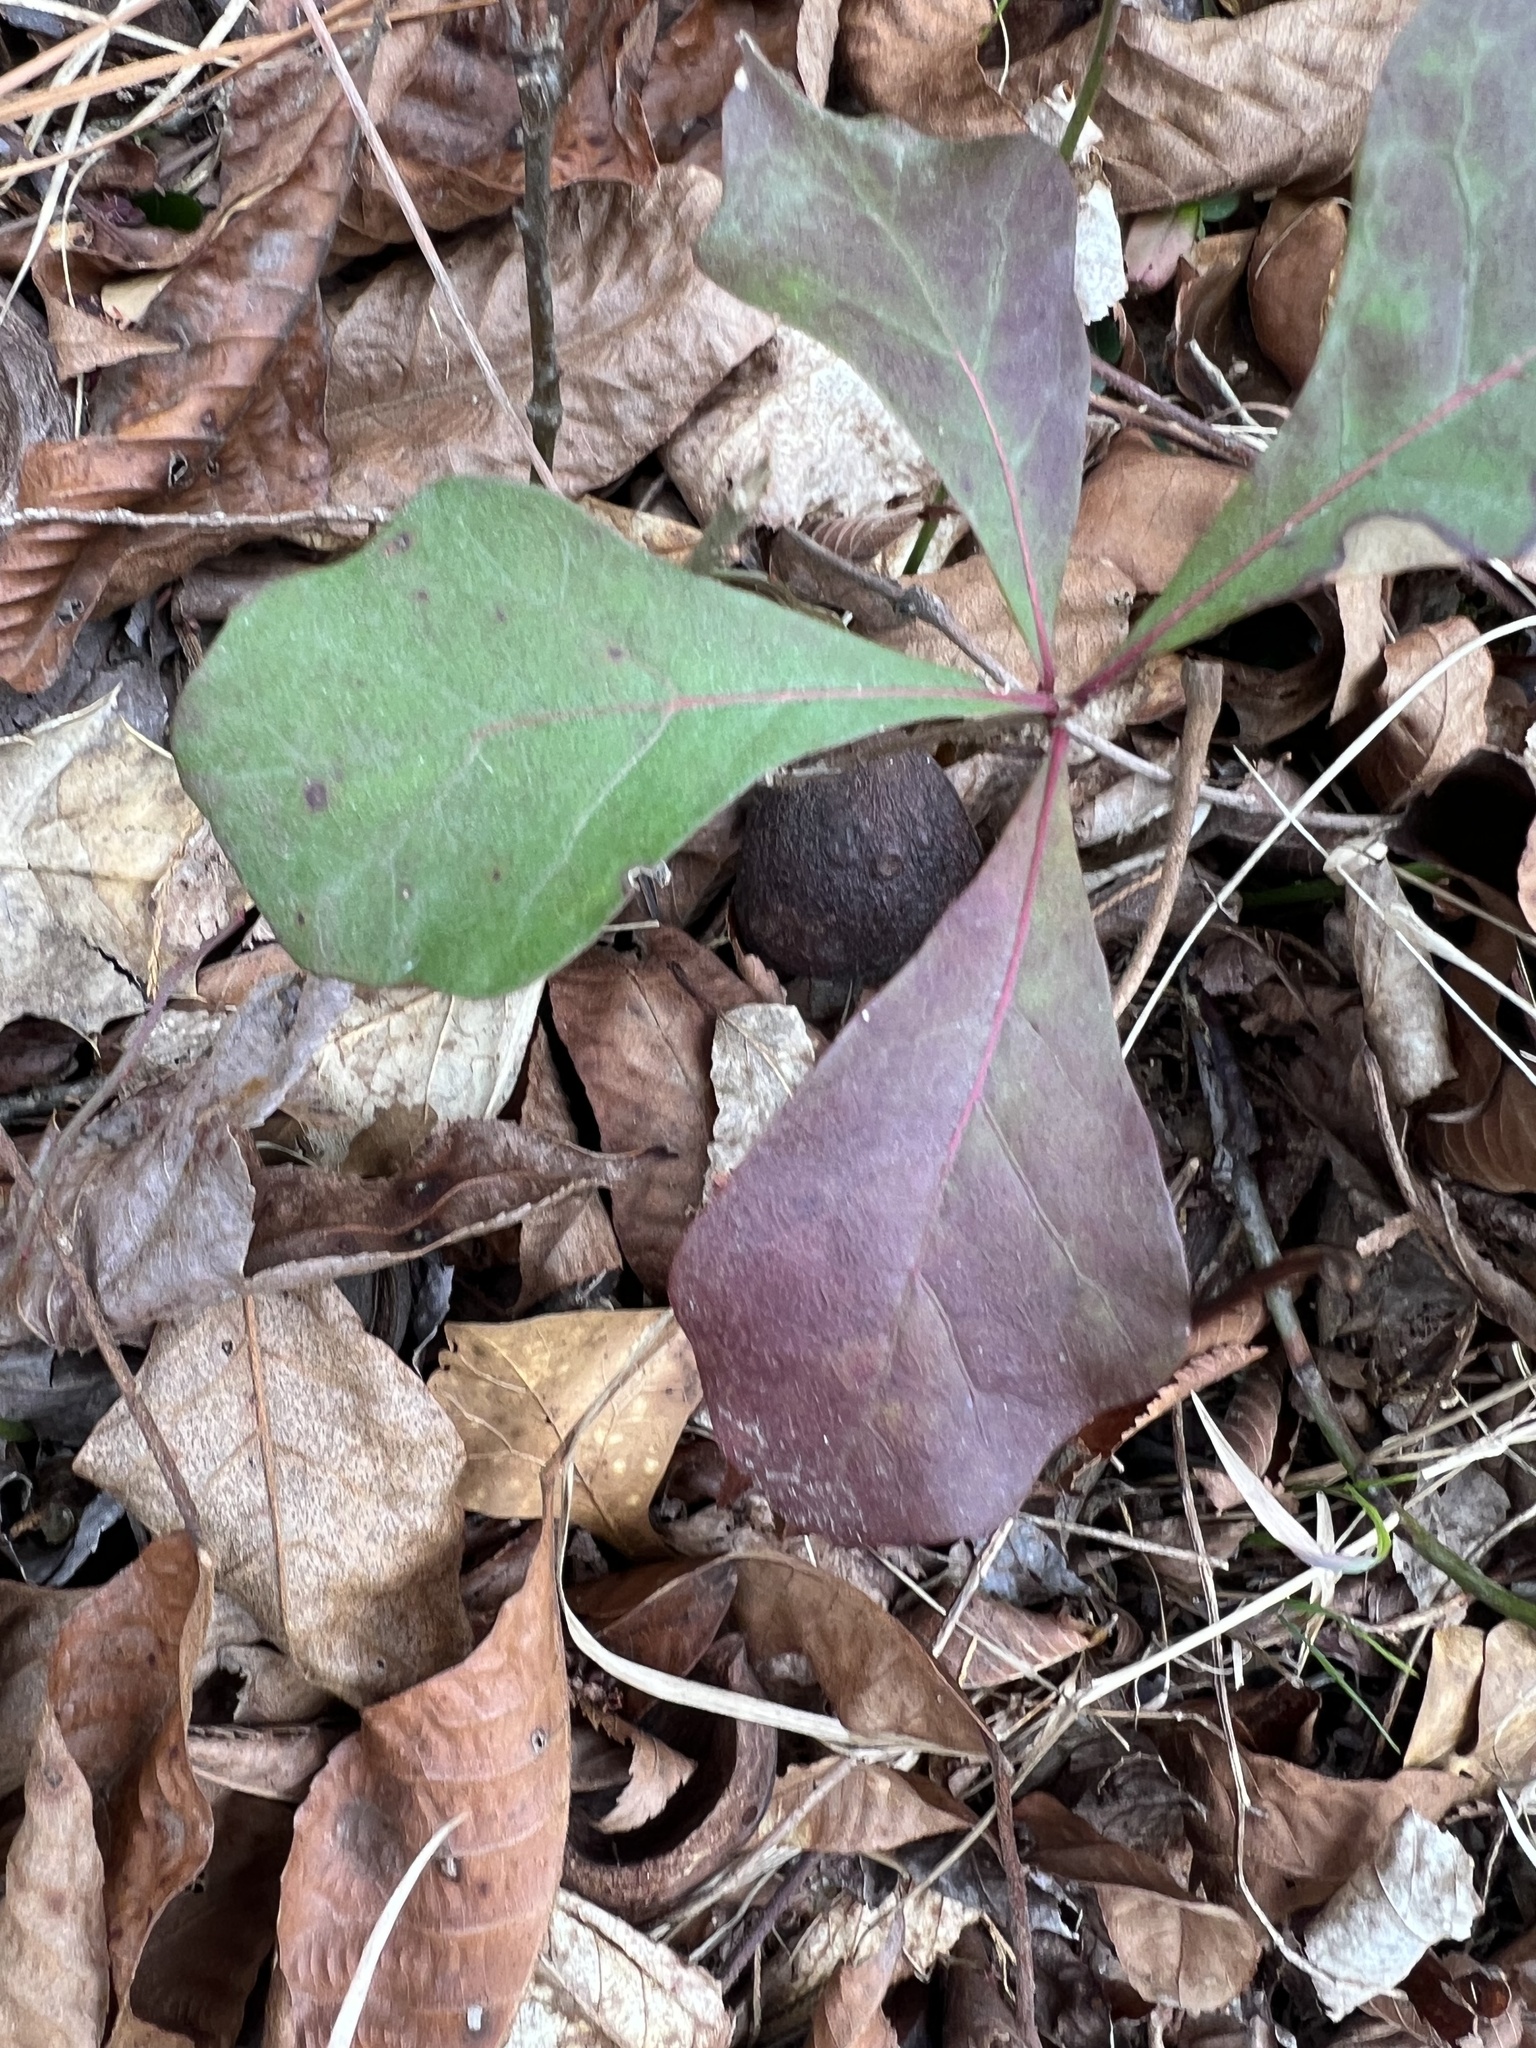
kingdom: Plantae
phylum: Tracheophyta
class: Magnoliopsida
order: Fagales
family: Fagaceae
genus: Quercus
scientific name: Quercus nigra
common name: Water oak
